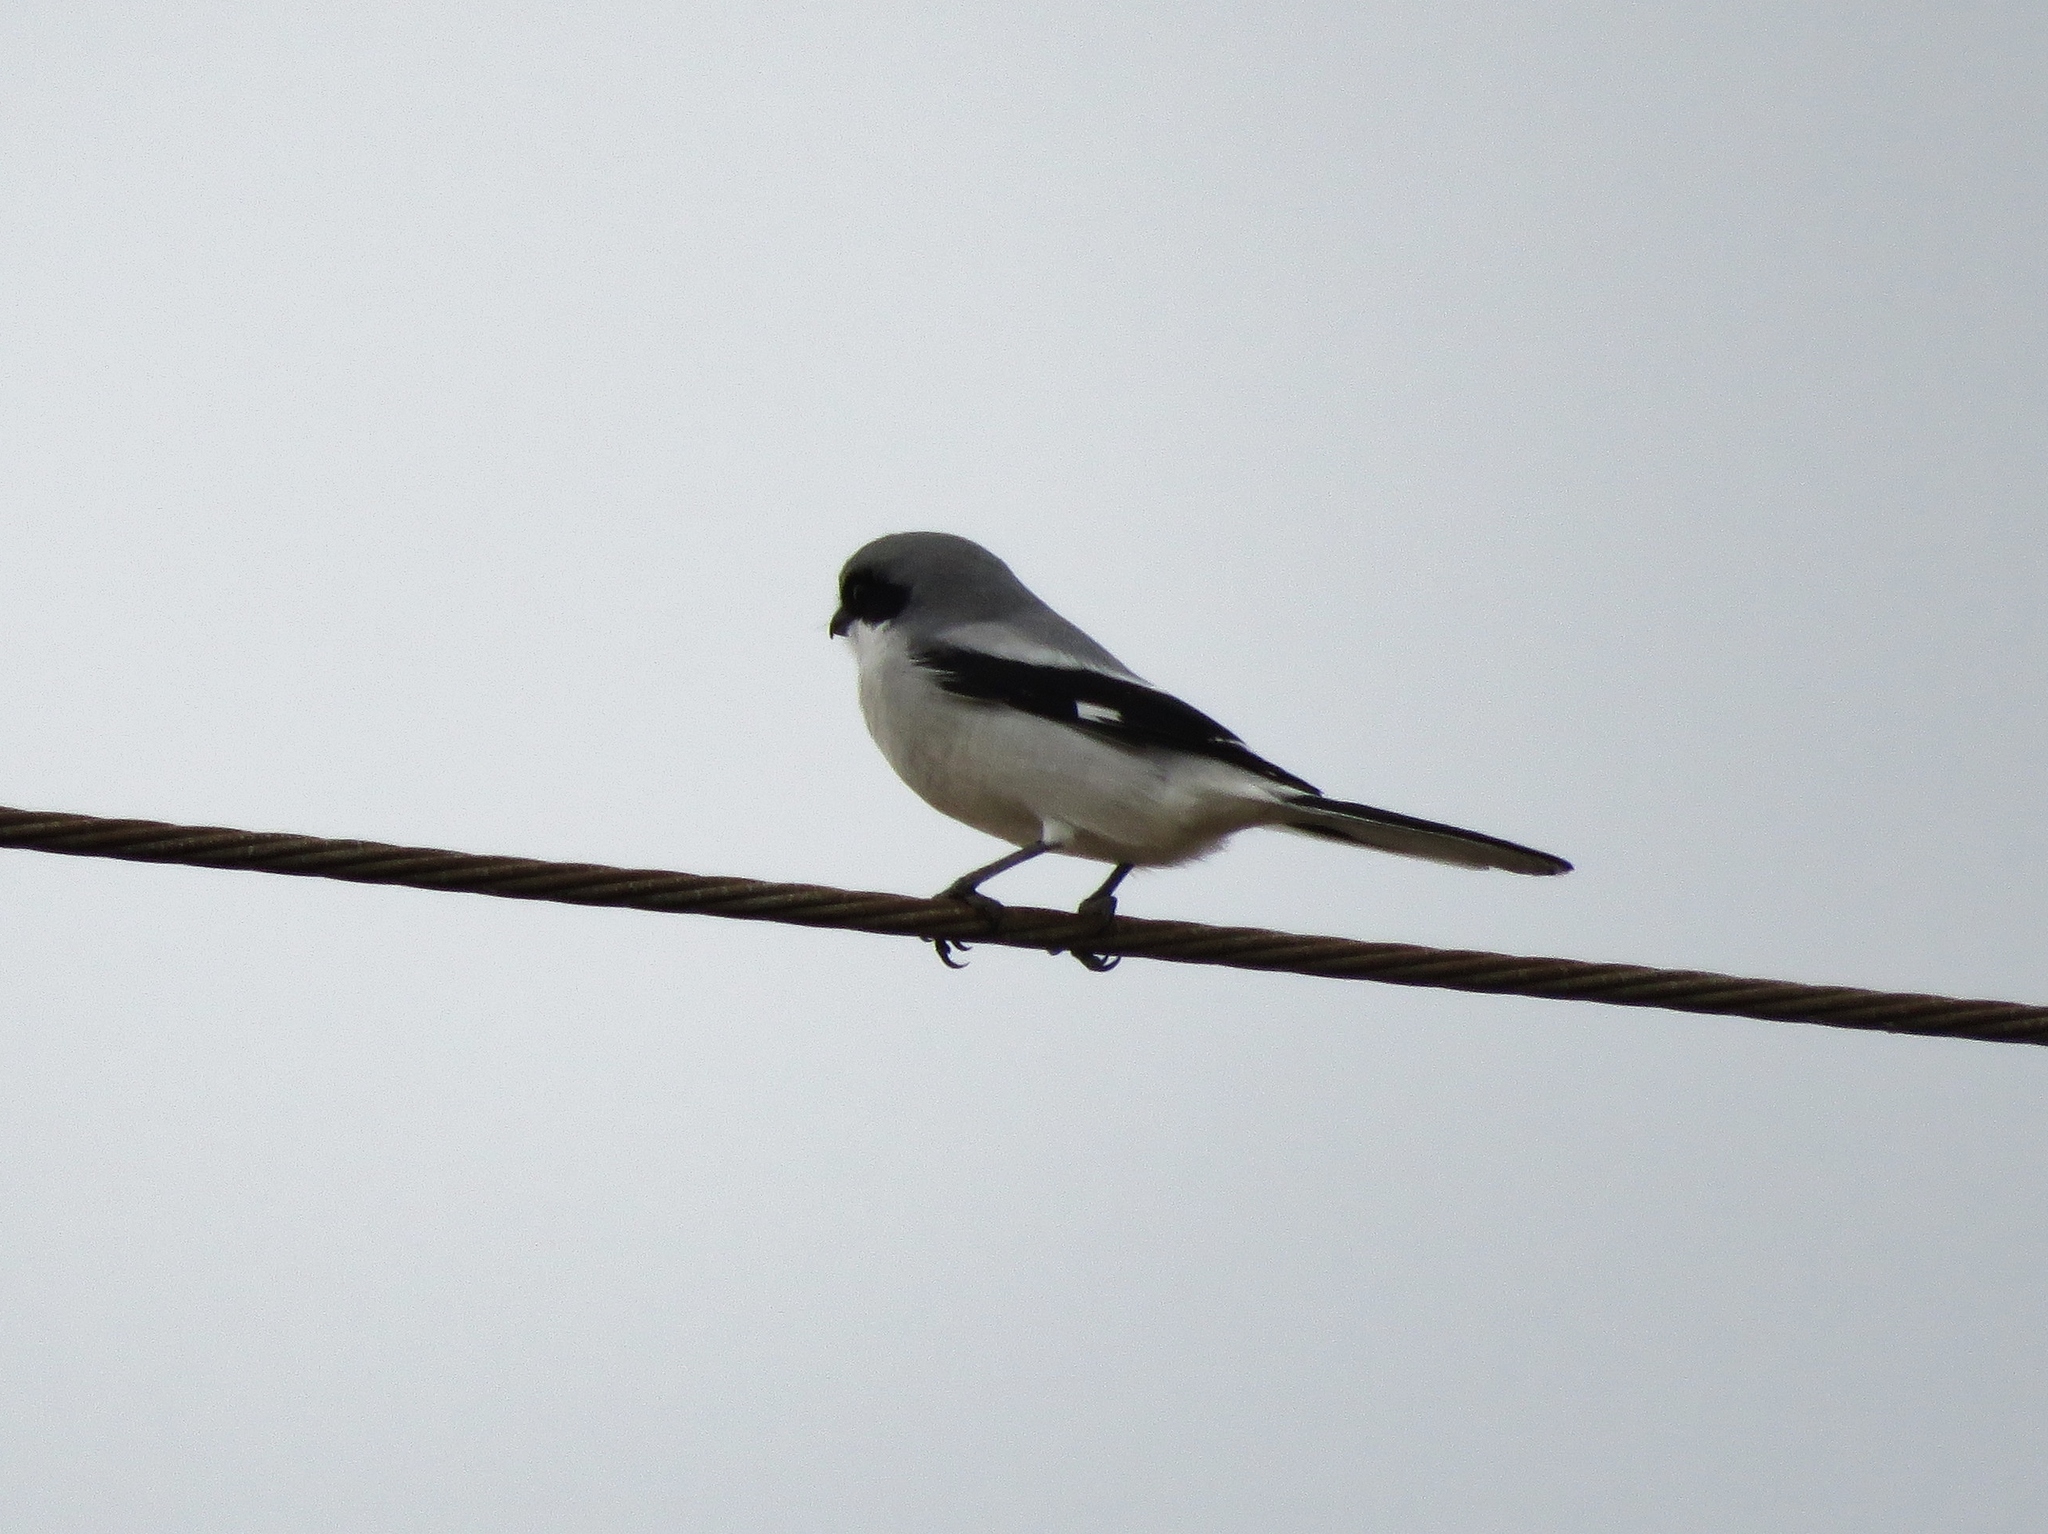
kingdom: Animalia
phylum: Chordata
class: Aves
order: Passeriformes
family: Laniidae
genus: Lanius
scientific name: Lanius ludovicianus
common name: Loggerhead shrike
